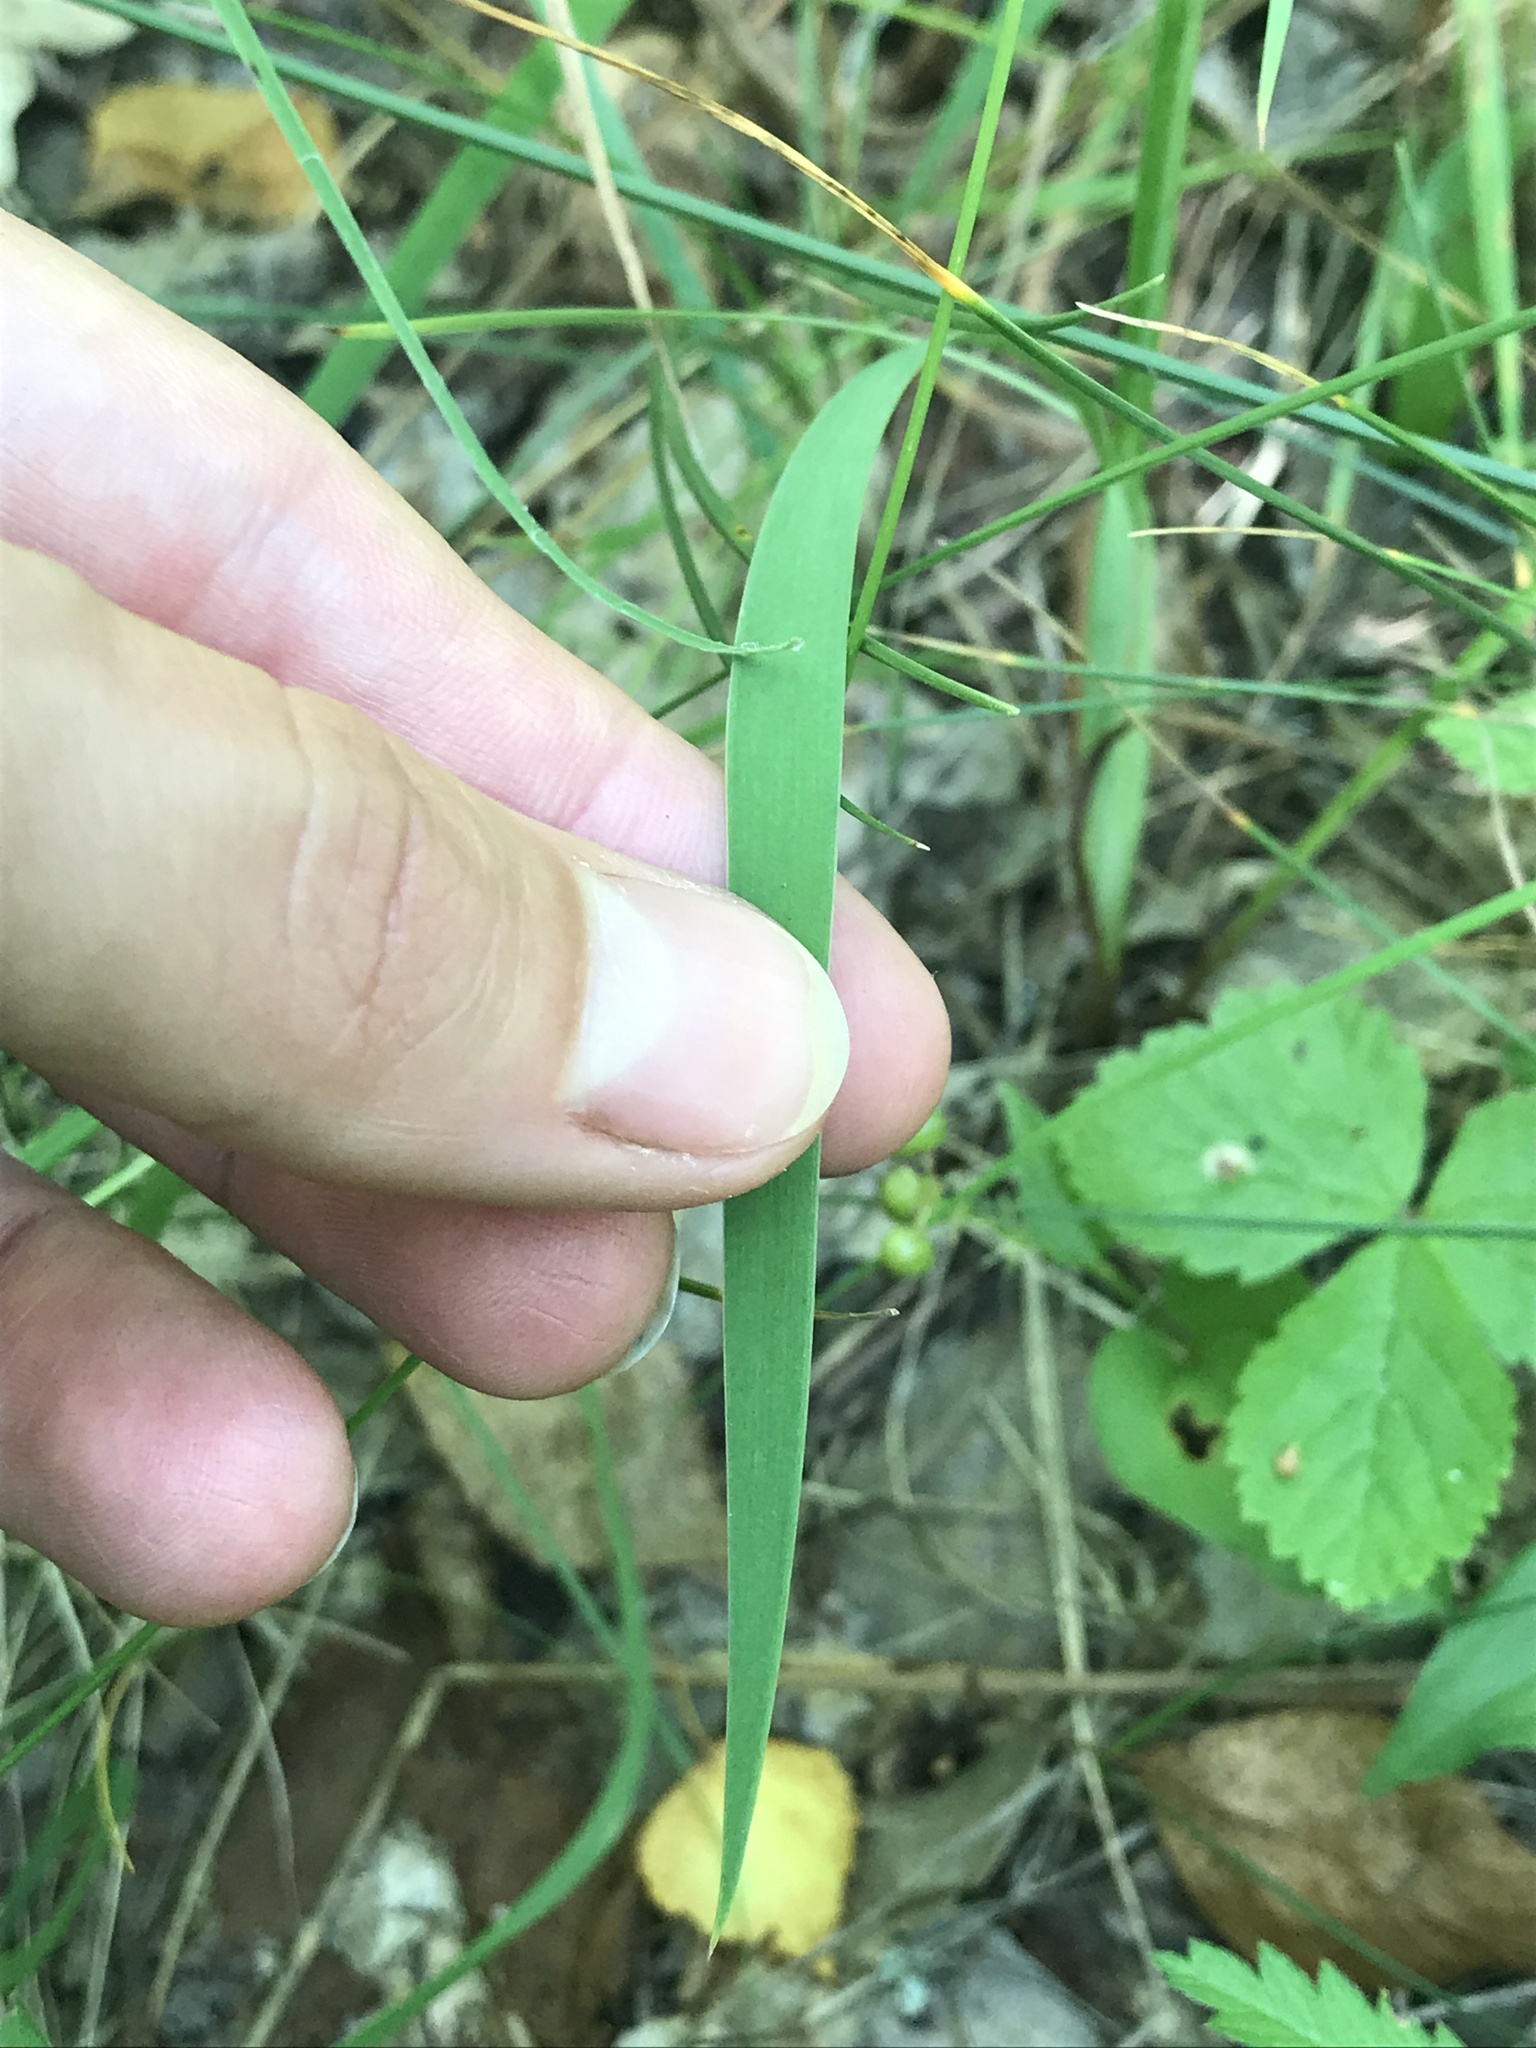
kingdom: Plantae
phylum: Tracheophyta
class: Liliopsida
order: Asparagales
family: Iridaceae
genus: Iris
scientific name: Iris sibirica
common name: Siberian iris
